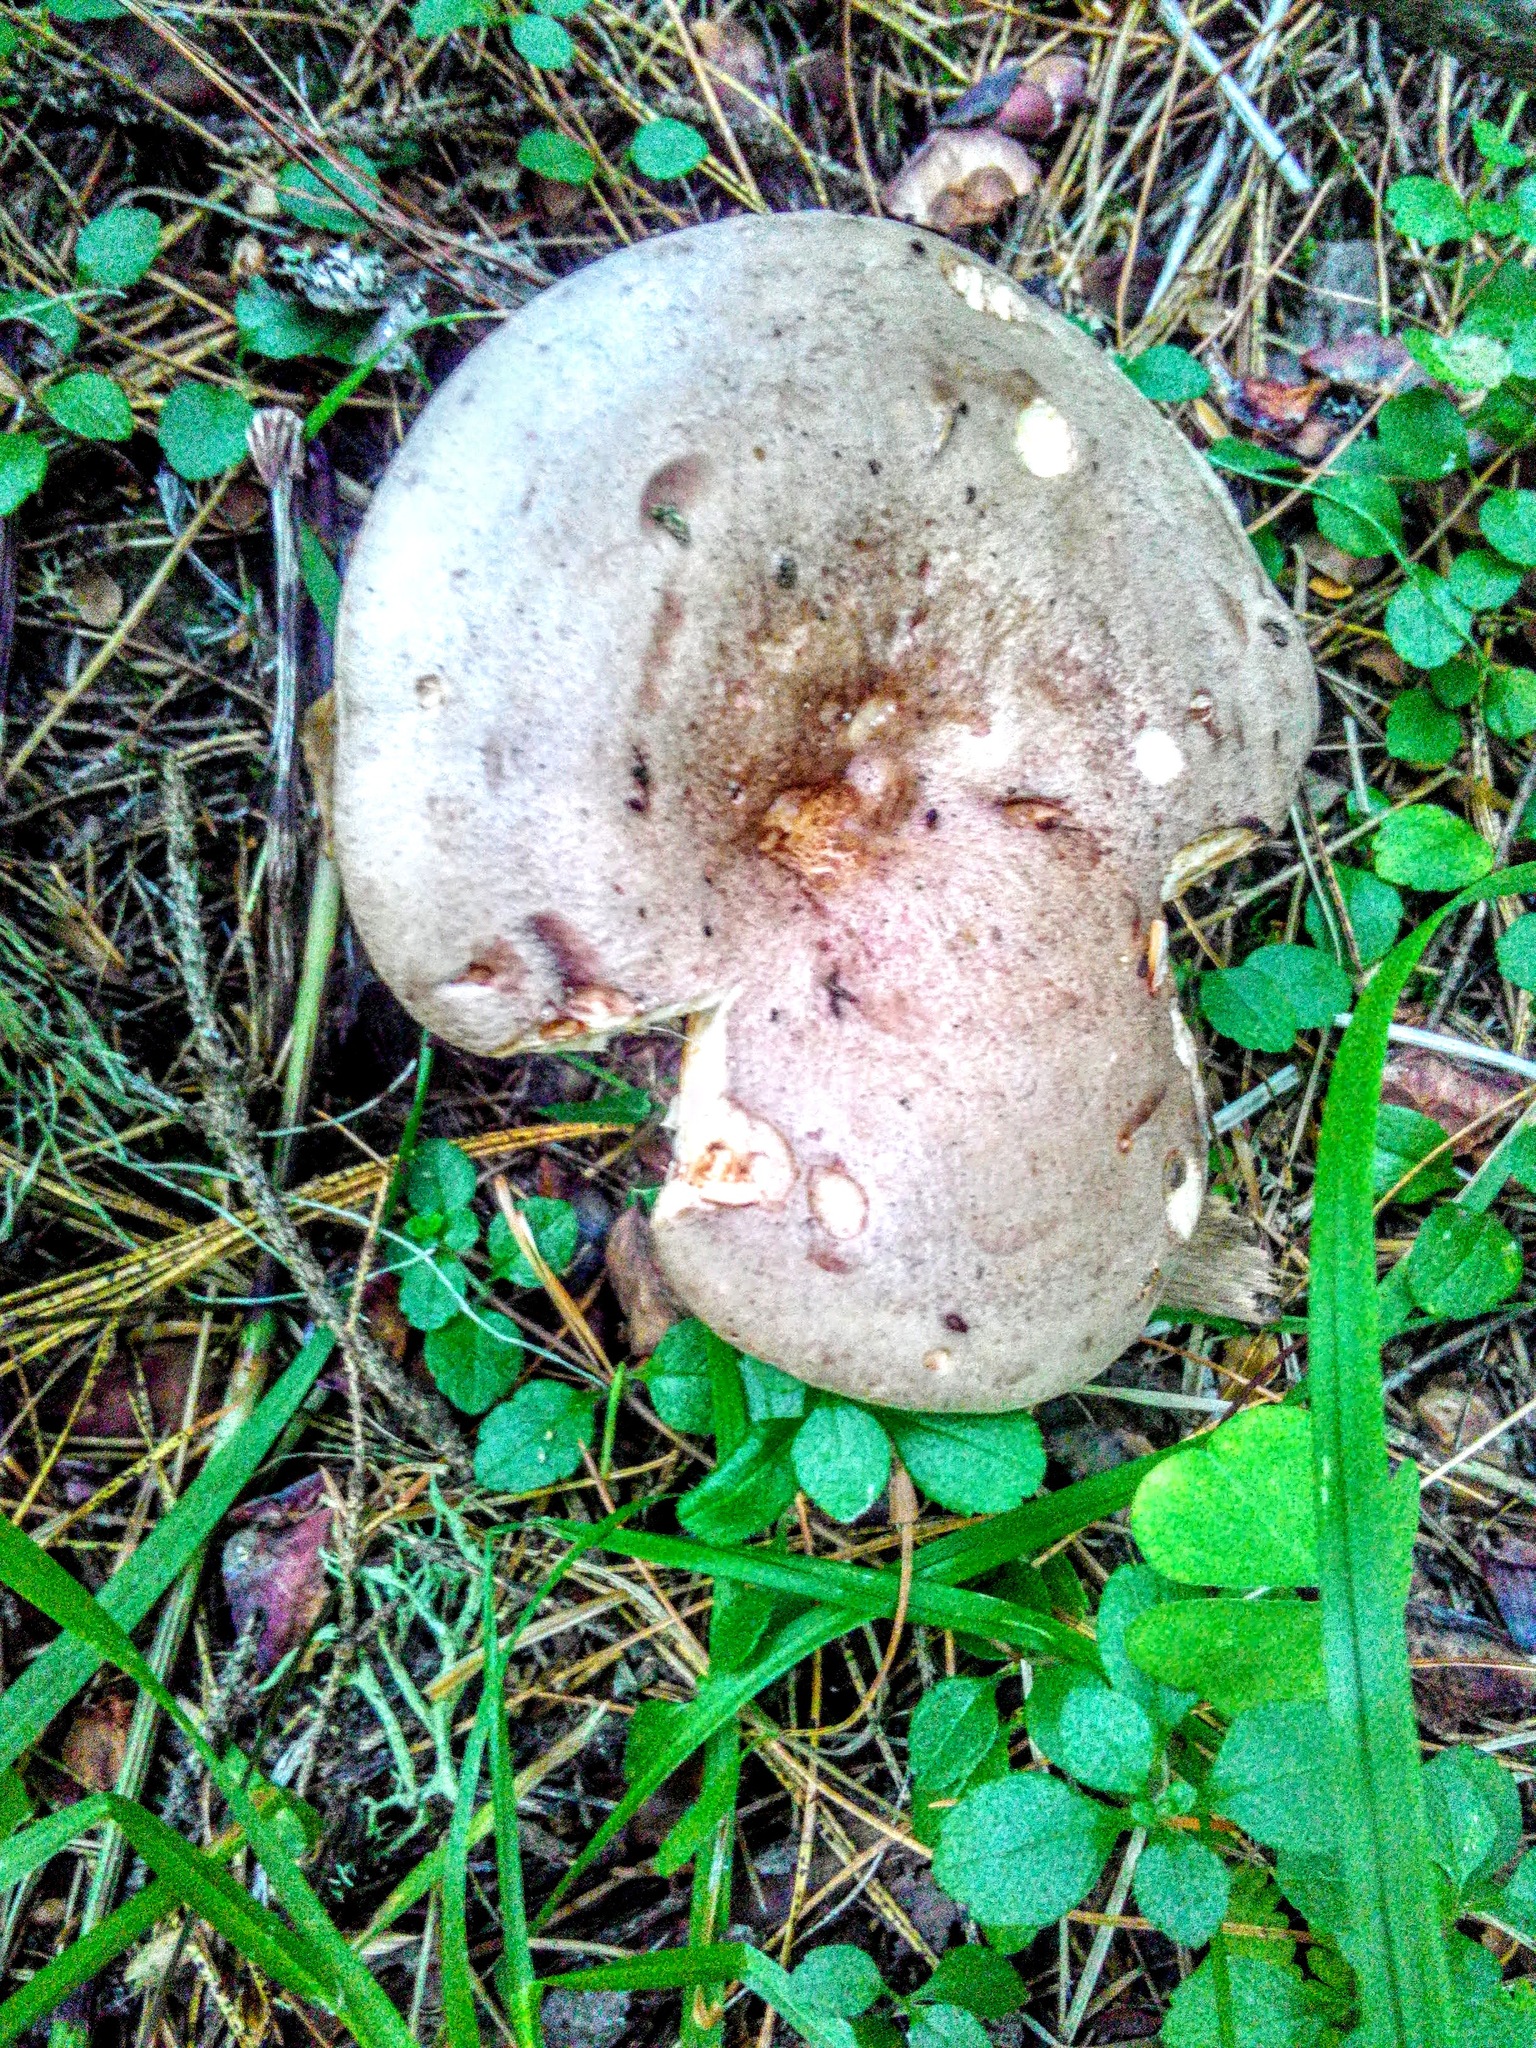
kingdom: Fungi
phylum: Basidiomycota
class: Agaricomycetes
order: Russulales
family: Russulaceae
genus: Lactarius
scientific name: Lactarius trivialis
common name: Tacked milkcap
